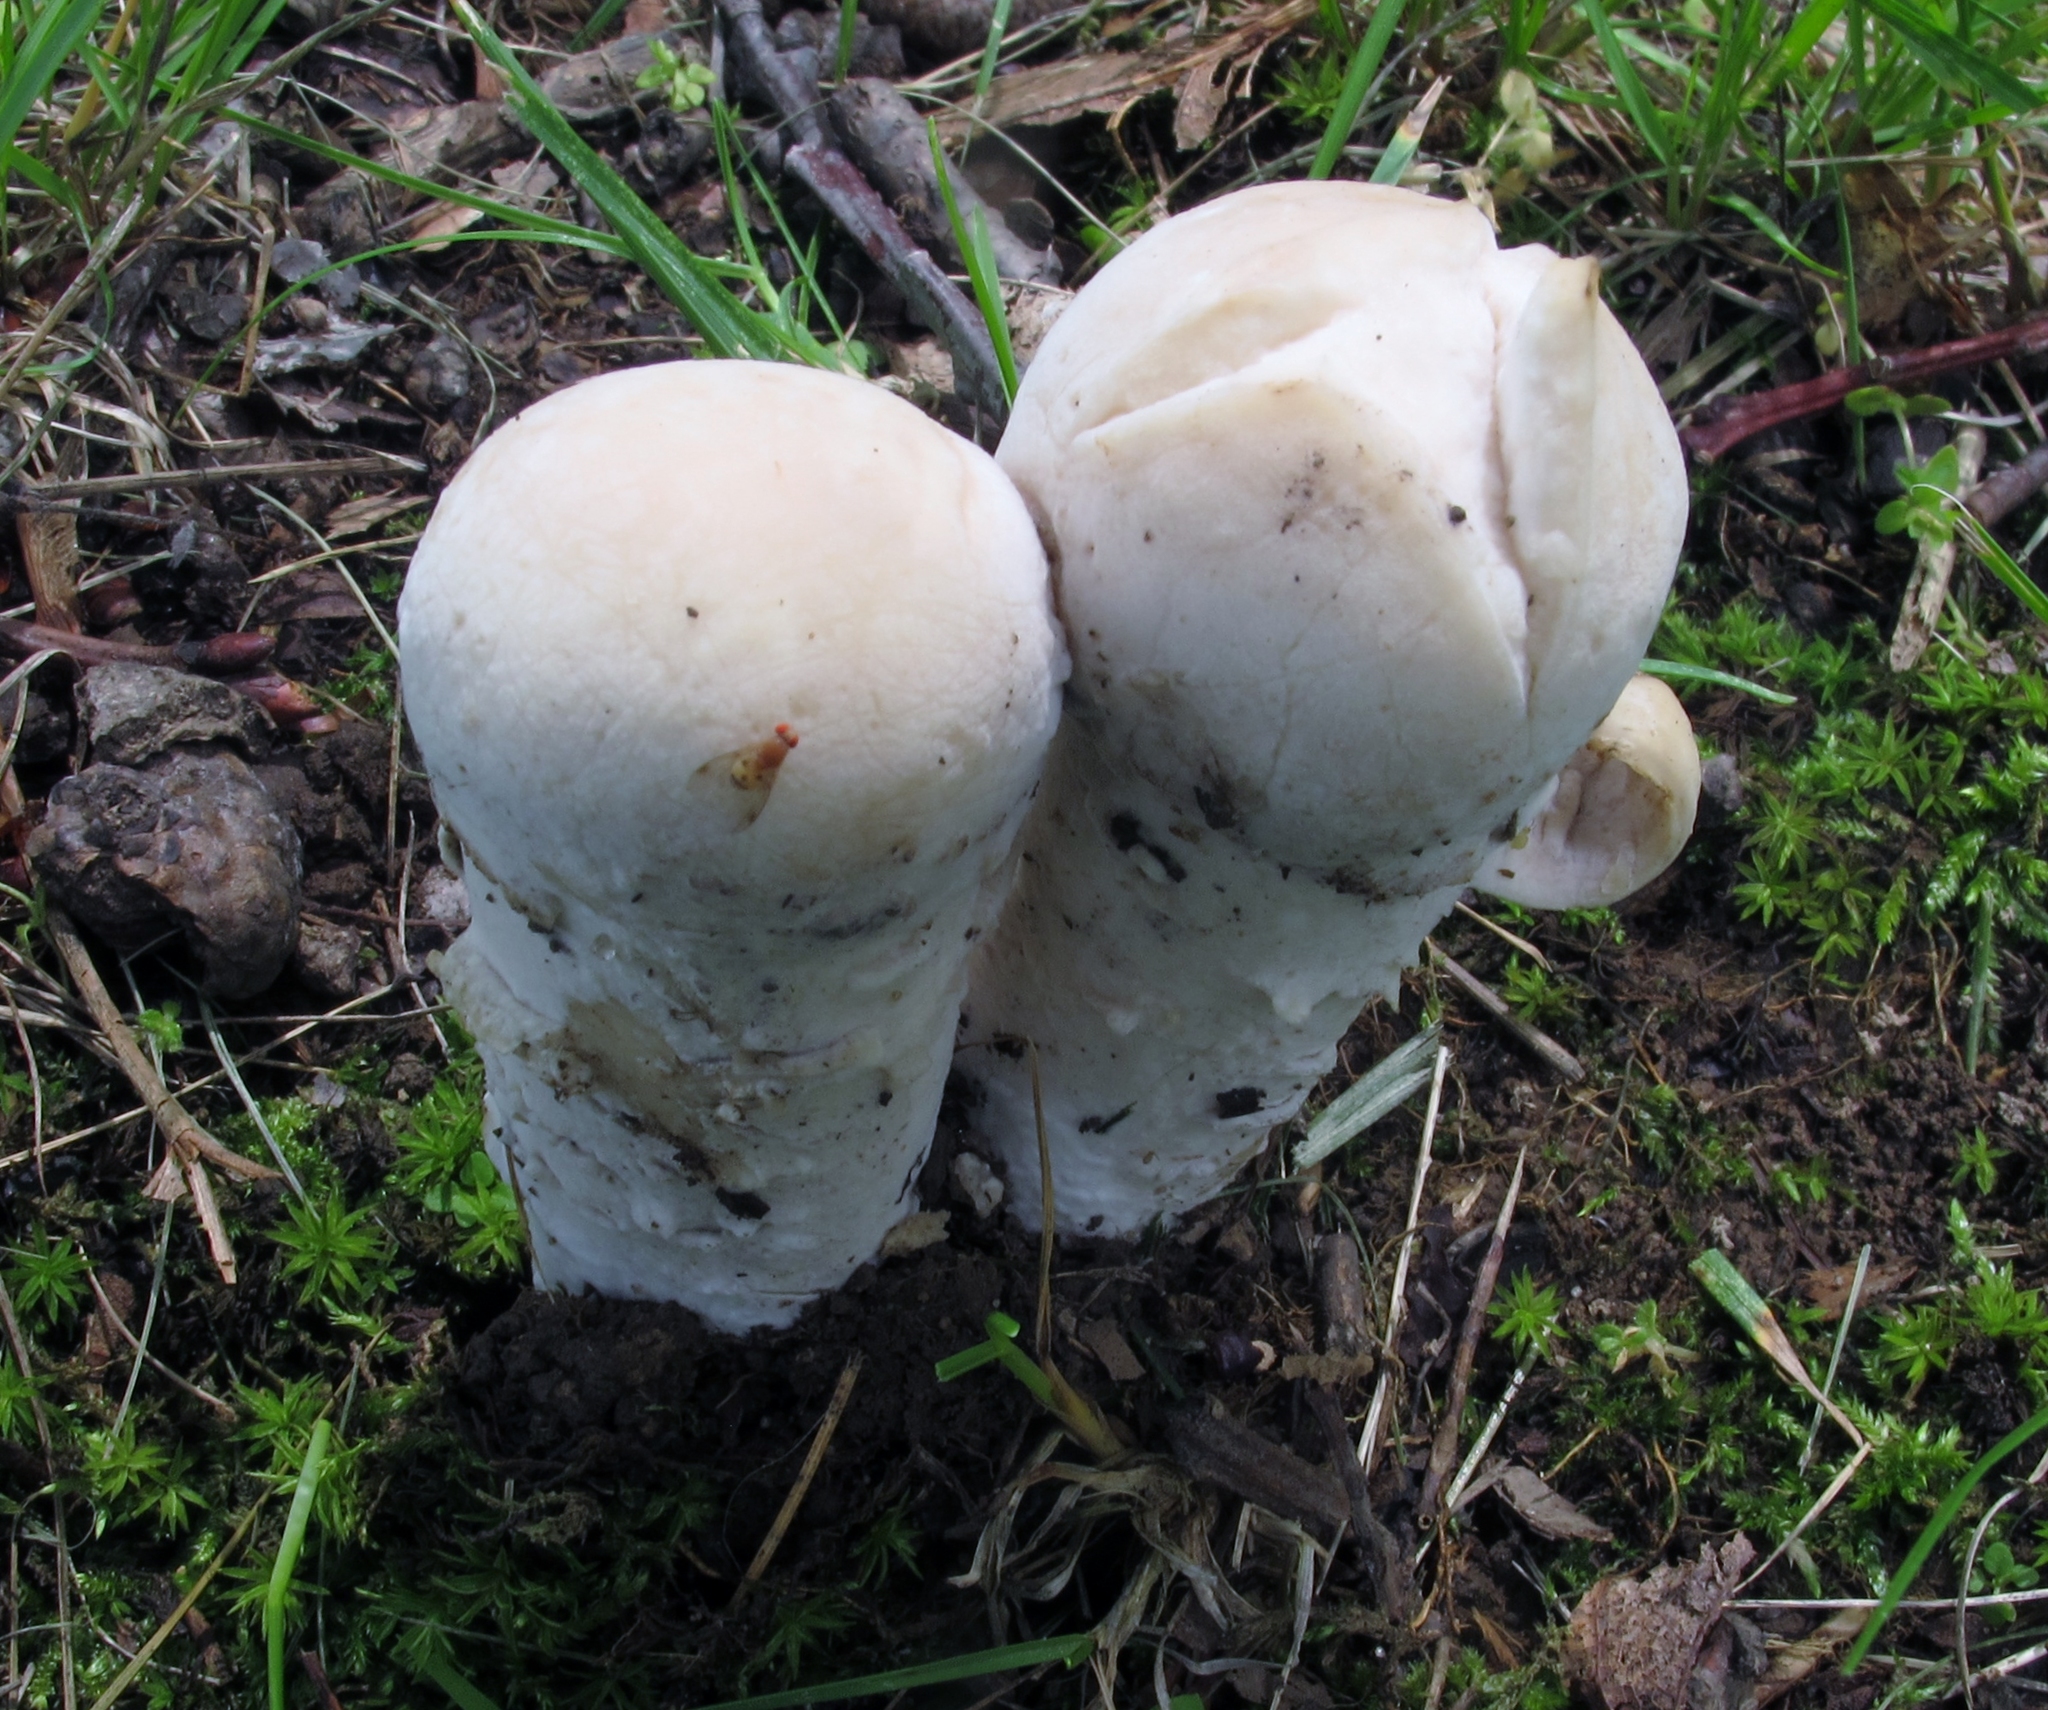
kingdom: Fungi
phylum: Ascomycota
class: Sordariomycetes
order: Hypocreales
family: Hypocreaceae
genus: Hypomyces
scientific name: Hypomyces hyalinus
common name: Amanita mold
